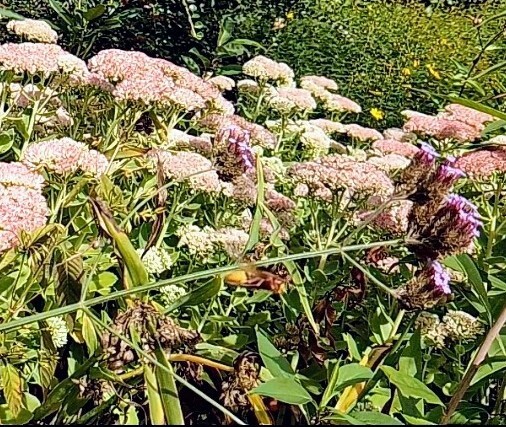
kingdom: Animalia
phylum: Arthropoda
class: Insecta
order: Hymenoptera
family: Vespidae
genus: Vespa
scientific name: Vespa crabro
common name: Hornet
